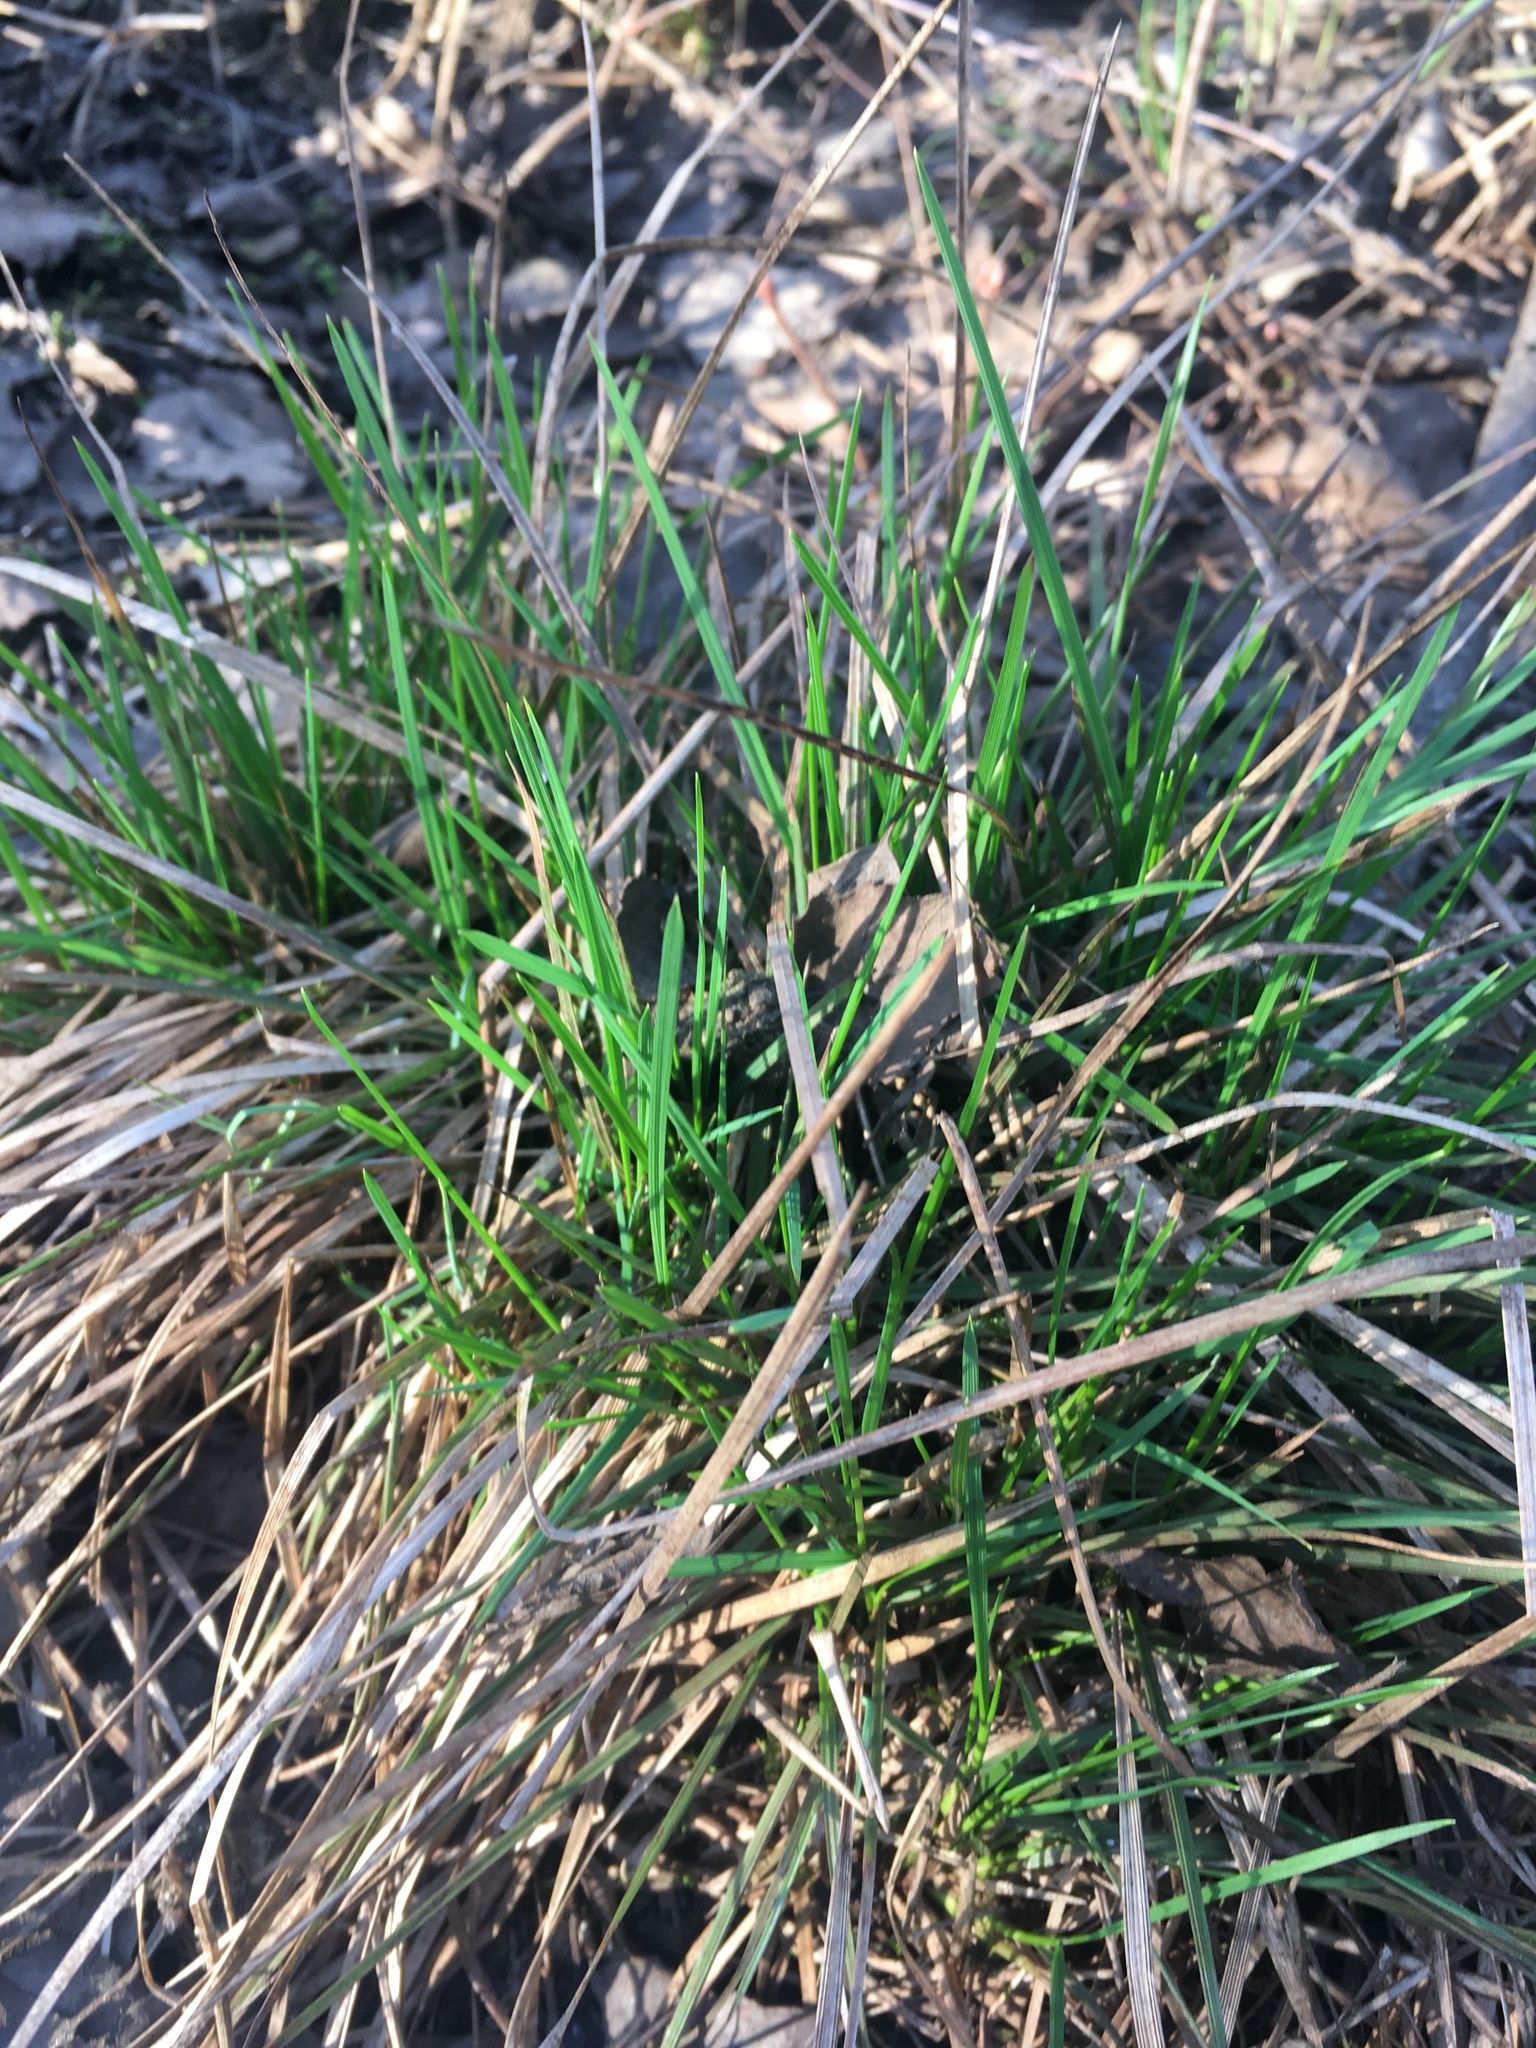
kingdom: Plantae
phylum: Tracheophyta
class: Liliopsida
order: Poales
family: Poaceae
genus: Deschampsia
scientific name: Deschampsia cespitosa
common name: Tufted hair-grass
